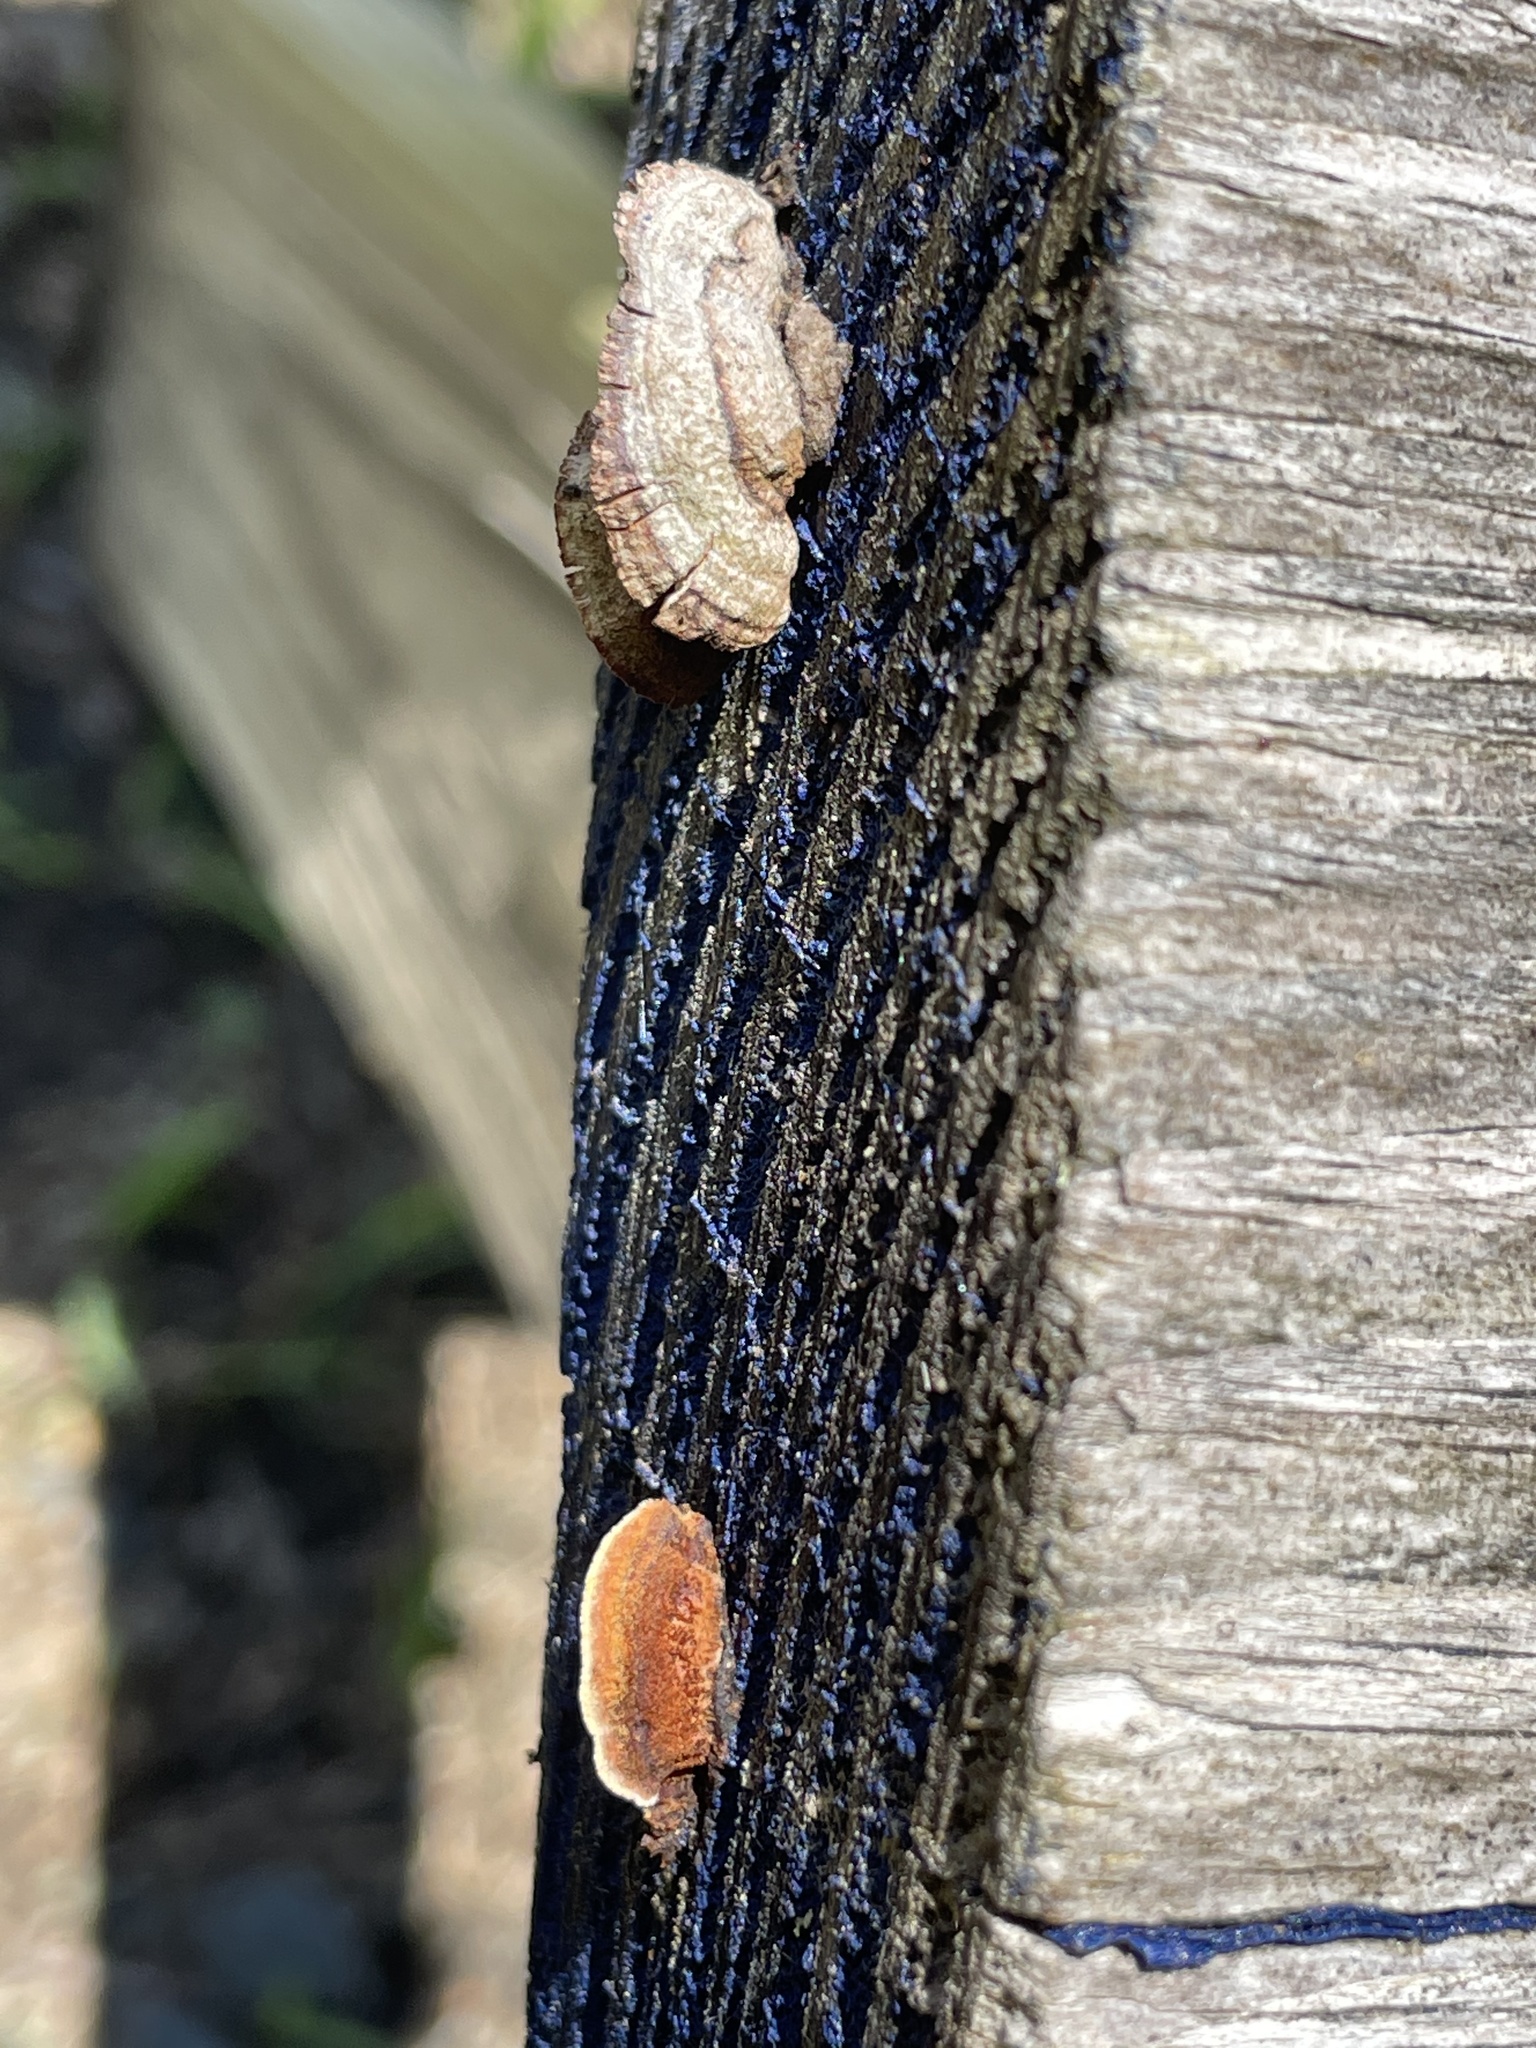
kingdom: Fungi
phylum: Basidiomycota
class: Agaricomycetes
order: Gloeophyllales
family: Gloeophyllaceae
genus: Gloeophyllum
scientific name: Gloeophyllum sepiarium
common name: Conifer mazegill
